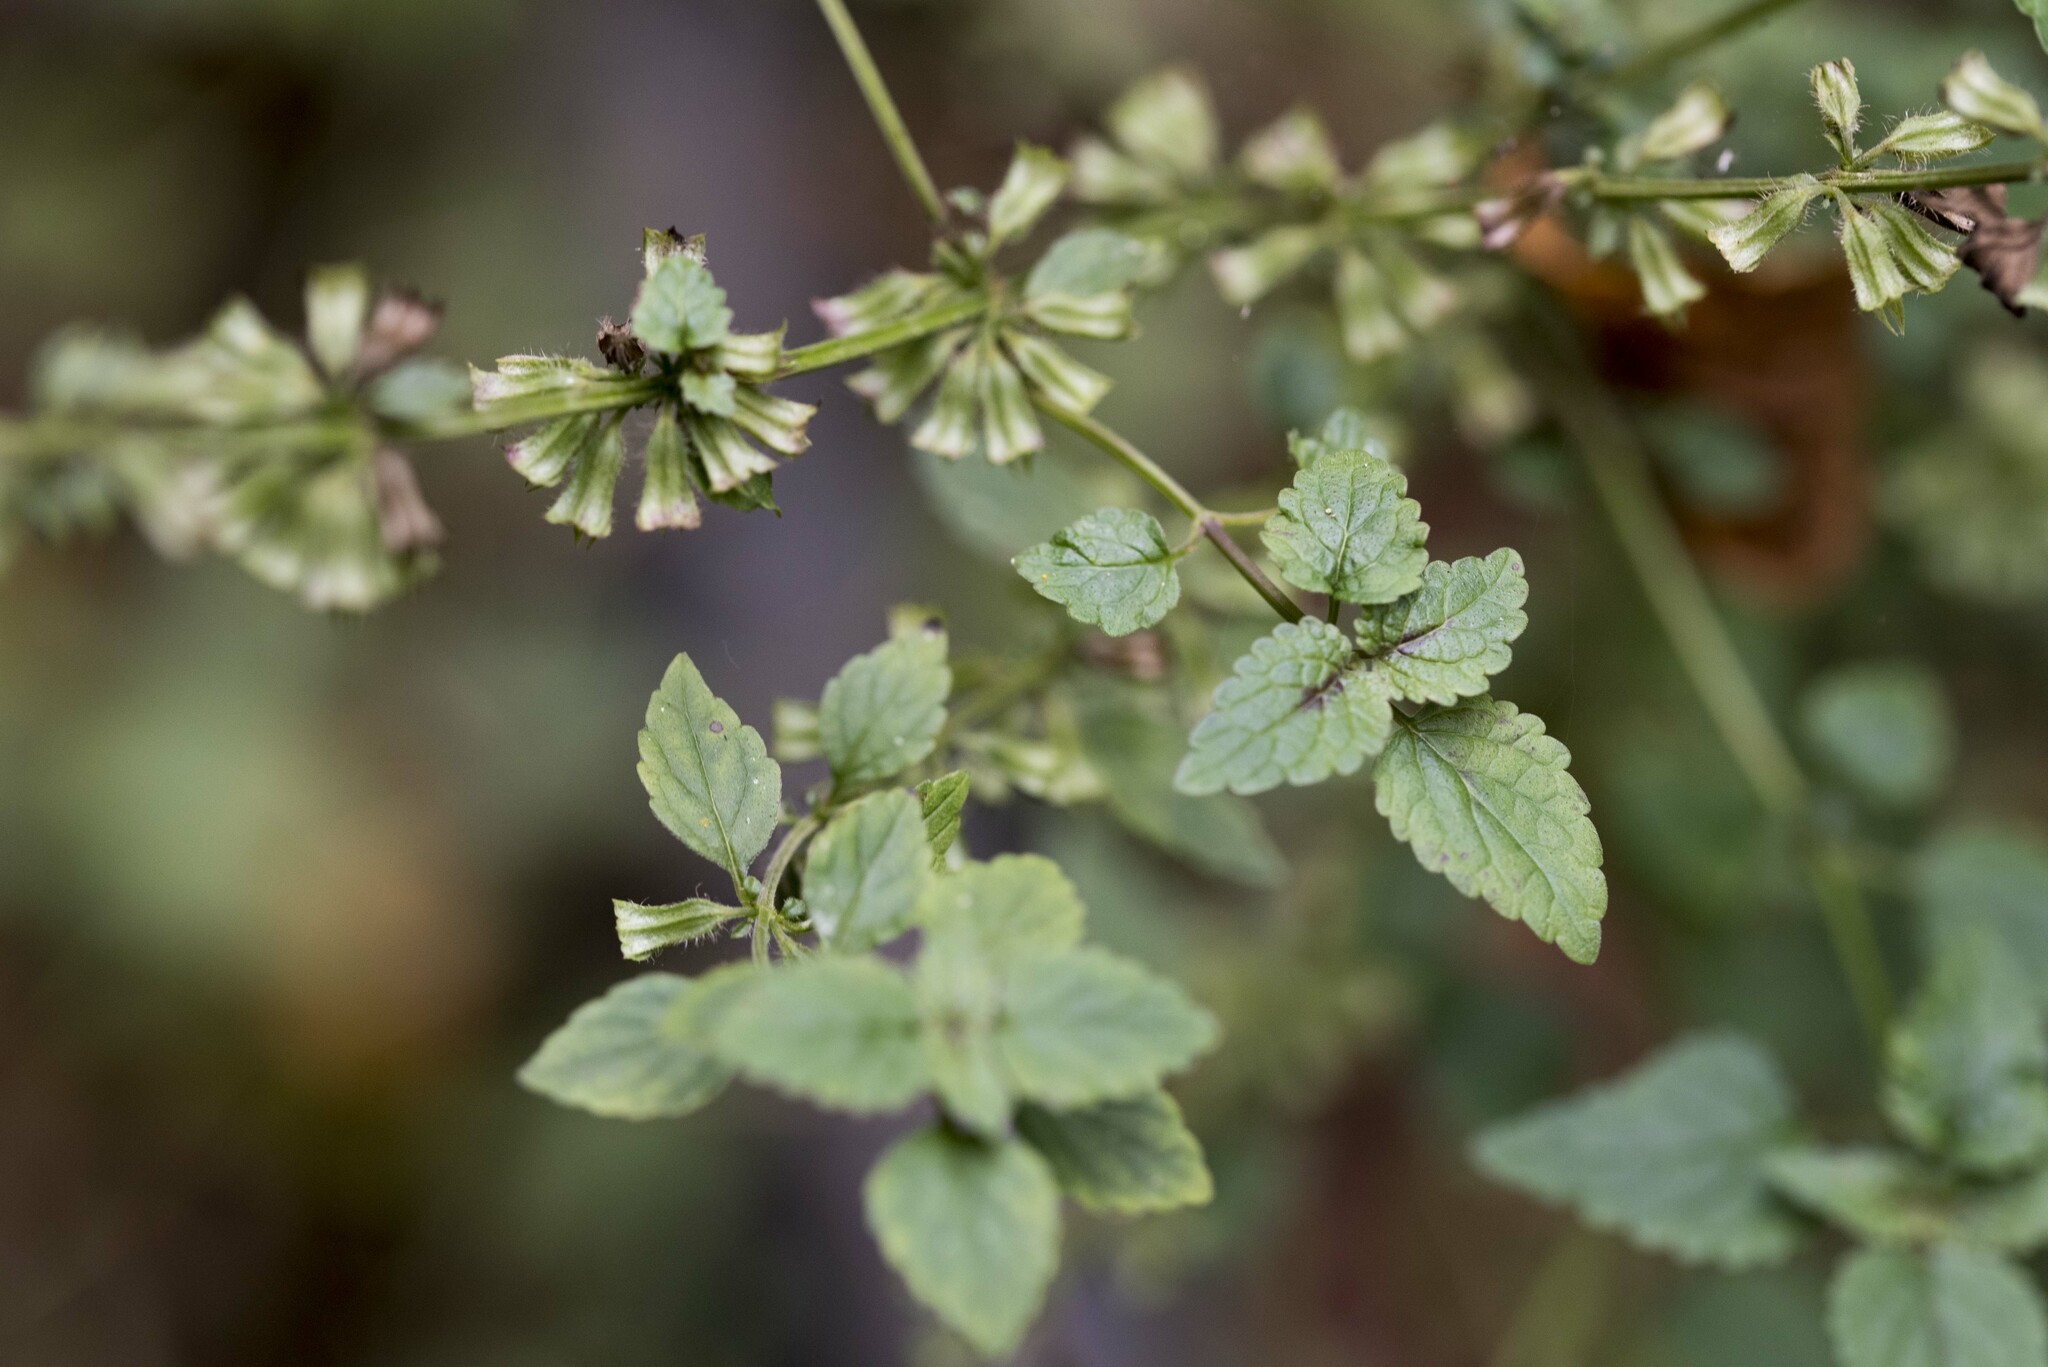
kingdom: Plantae
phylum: Tracheophyta
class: Magnoliopsida
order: Lamiales
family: Lamiaceae
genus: Melissa
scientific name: Melissa axillaris
